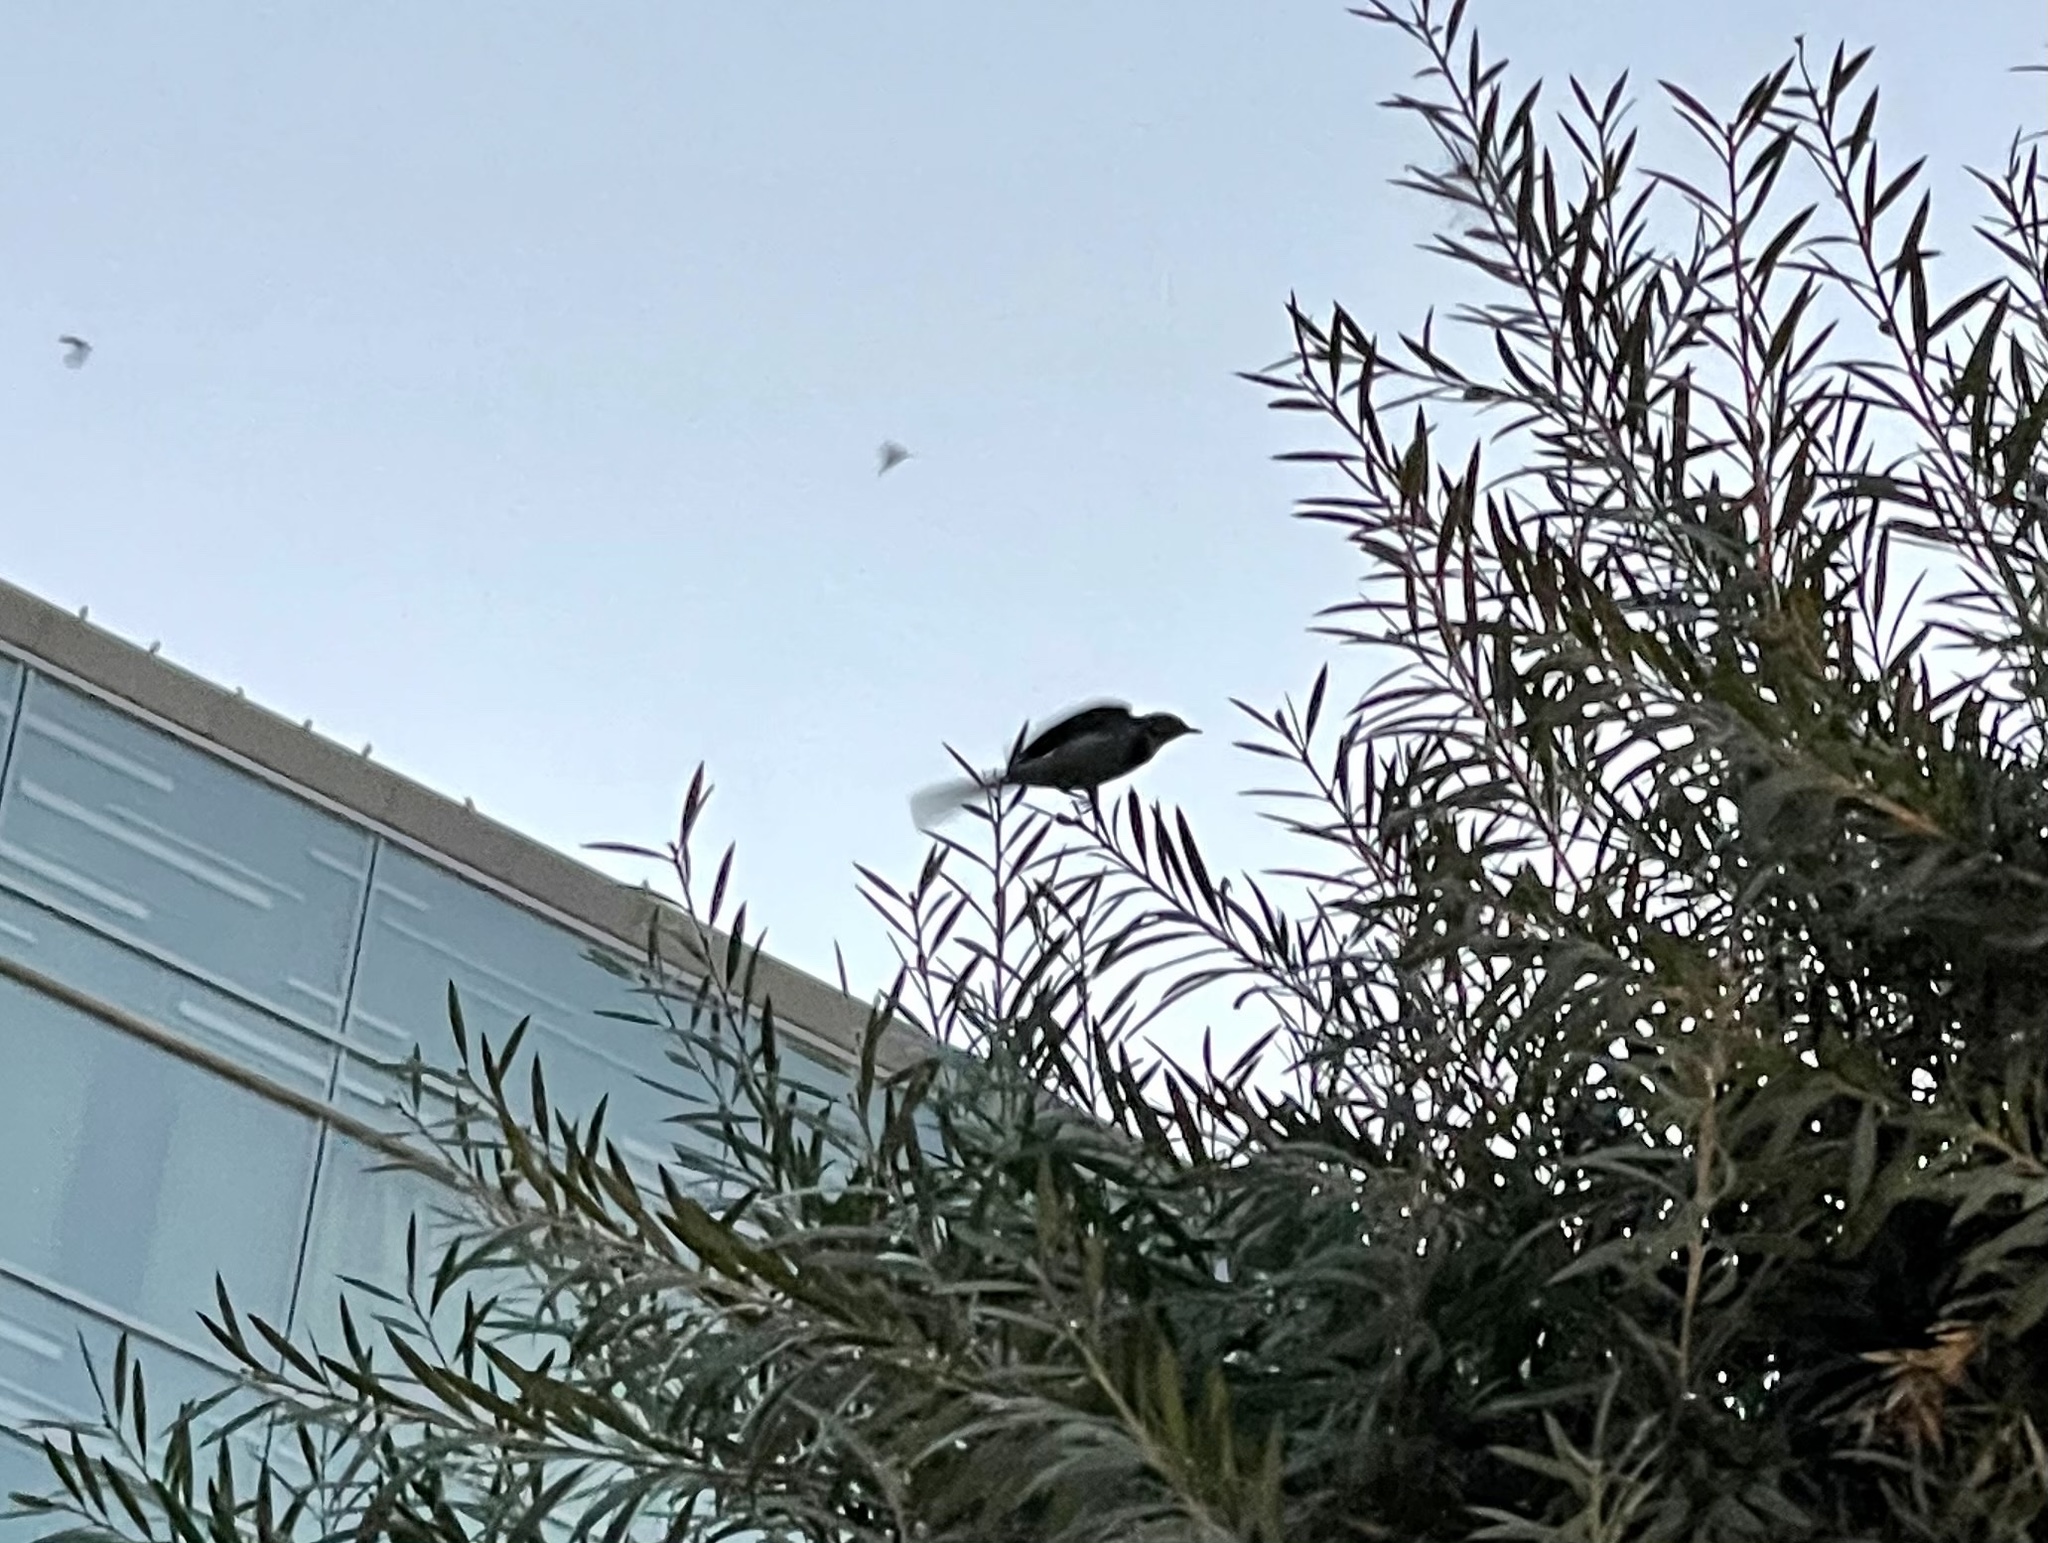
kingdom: Animalia
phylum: Chordata
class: Aves
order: Passeriformes
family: Motacillidae
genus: Motacilla
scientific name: Motacilla alba
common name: White wagtail
